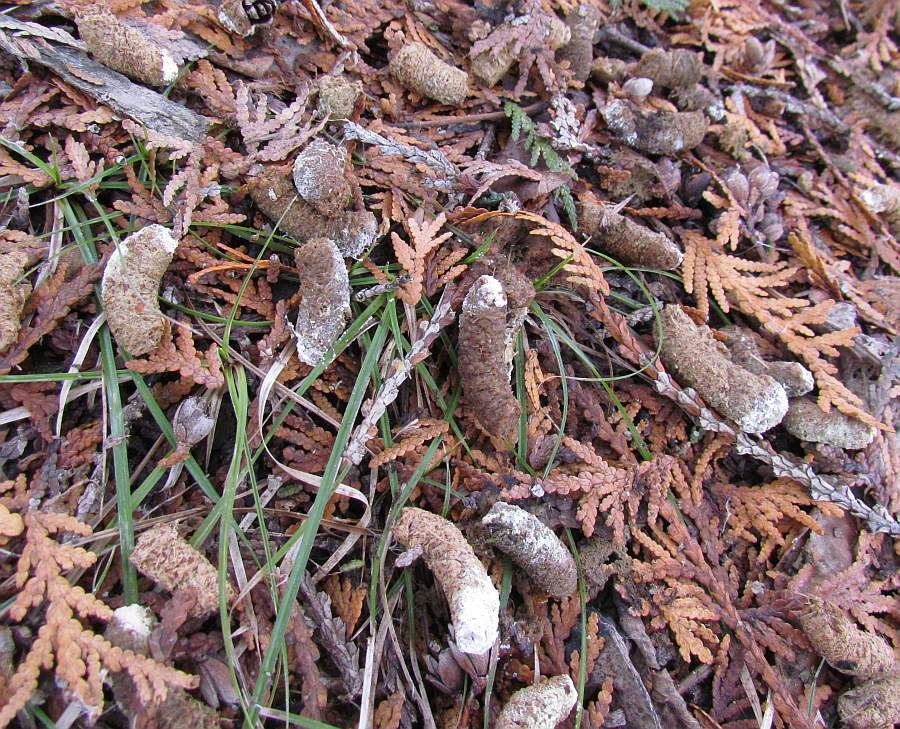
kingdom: Animalia
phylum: Chordata
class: Aves
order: Galliformes
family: Phasianidae
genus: Bonasa
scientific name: Bonasa umbellus
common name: Ruffed grouse
